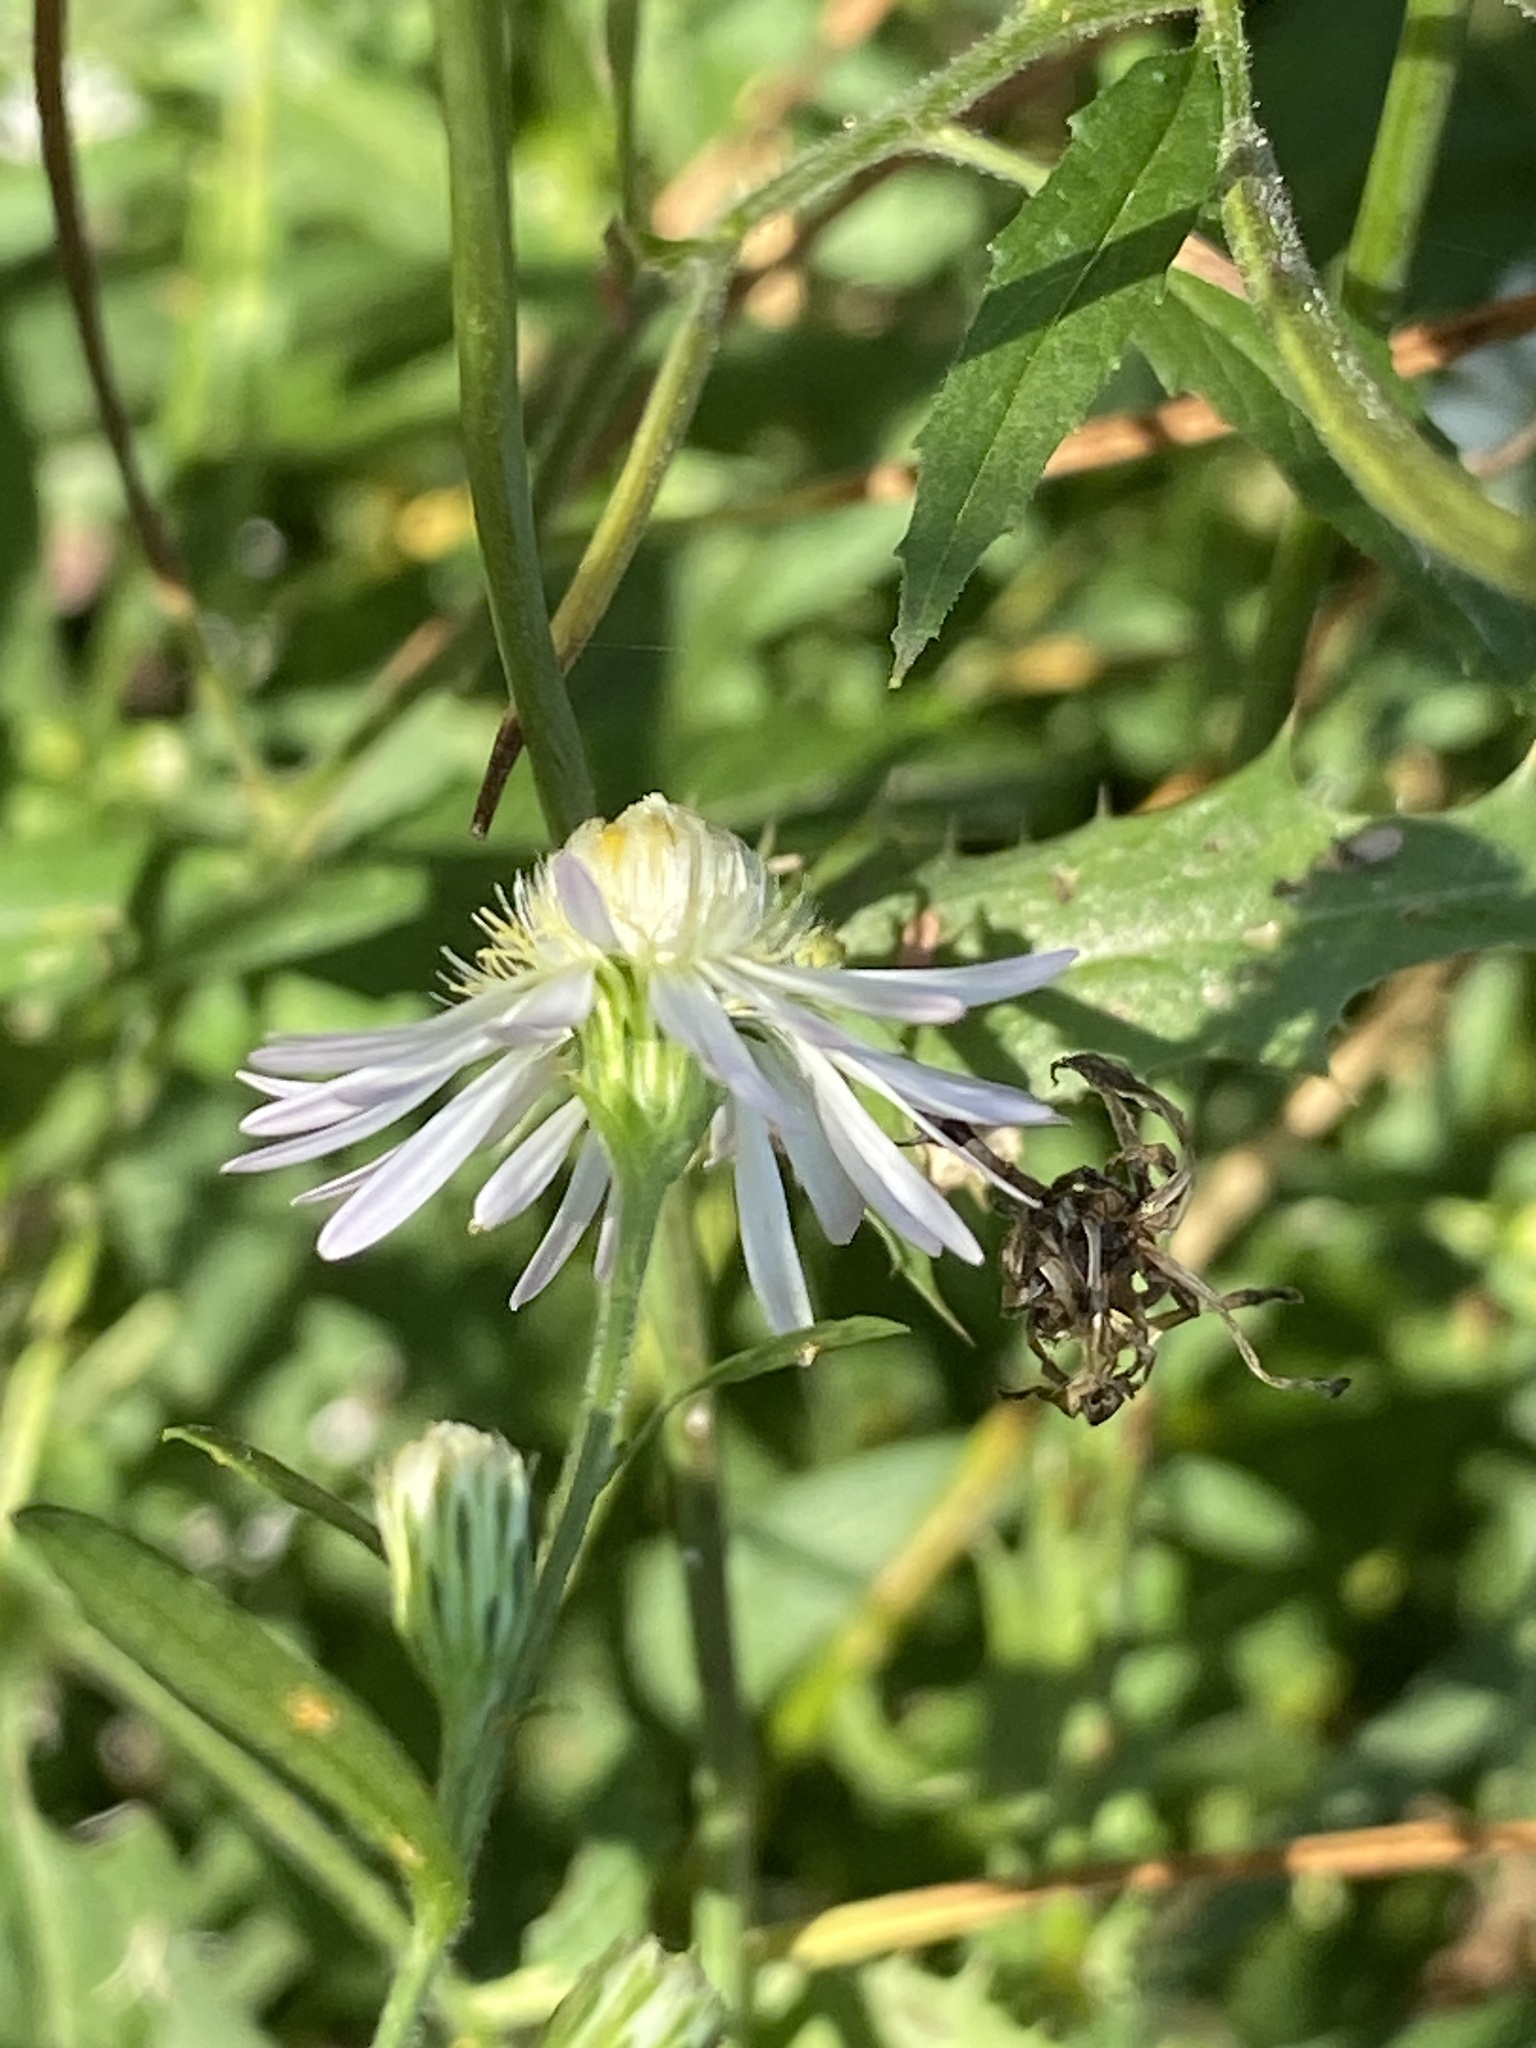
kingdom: Plantae
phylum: Tracheophyta
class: Magnoliopsida
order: Asterales
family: Asteraceae
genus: Symphyotrichum
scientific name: Symphyotrichum lanceolatum
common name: Panicled aster
